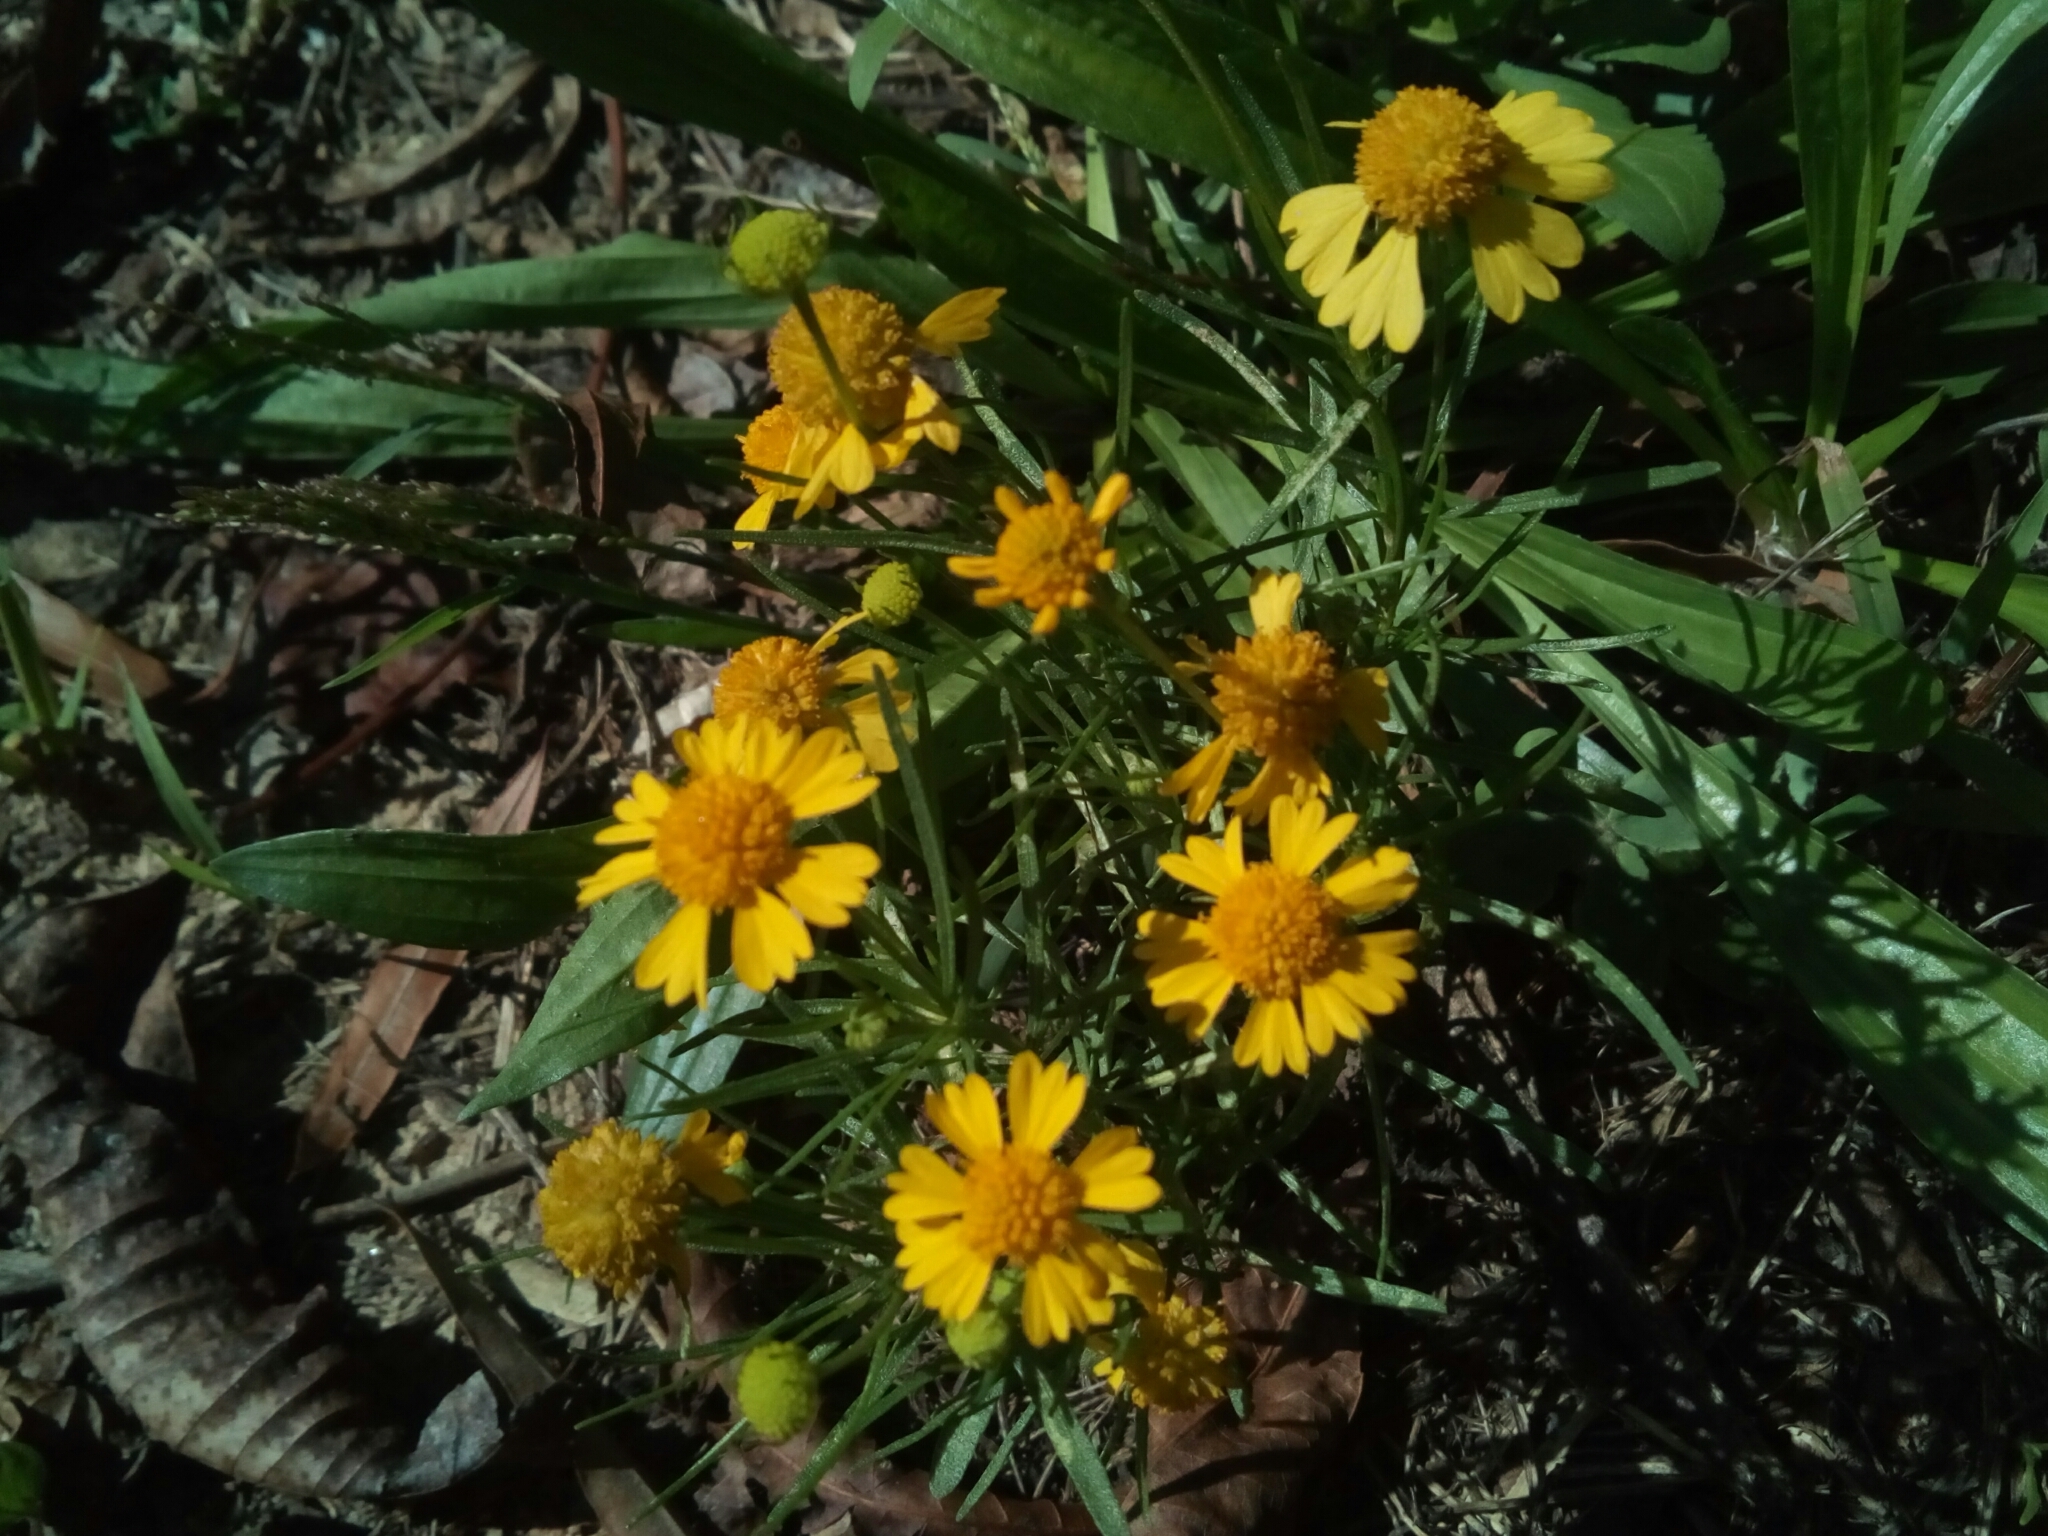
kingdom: Plantae
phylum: Tracheophyta
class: Magnoliopsida
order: Asterales
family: Asteraceae
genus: Helenium
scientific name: Helenium amarum
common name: Bitter sneezeweed
